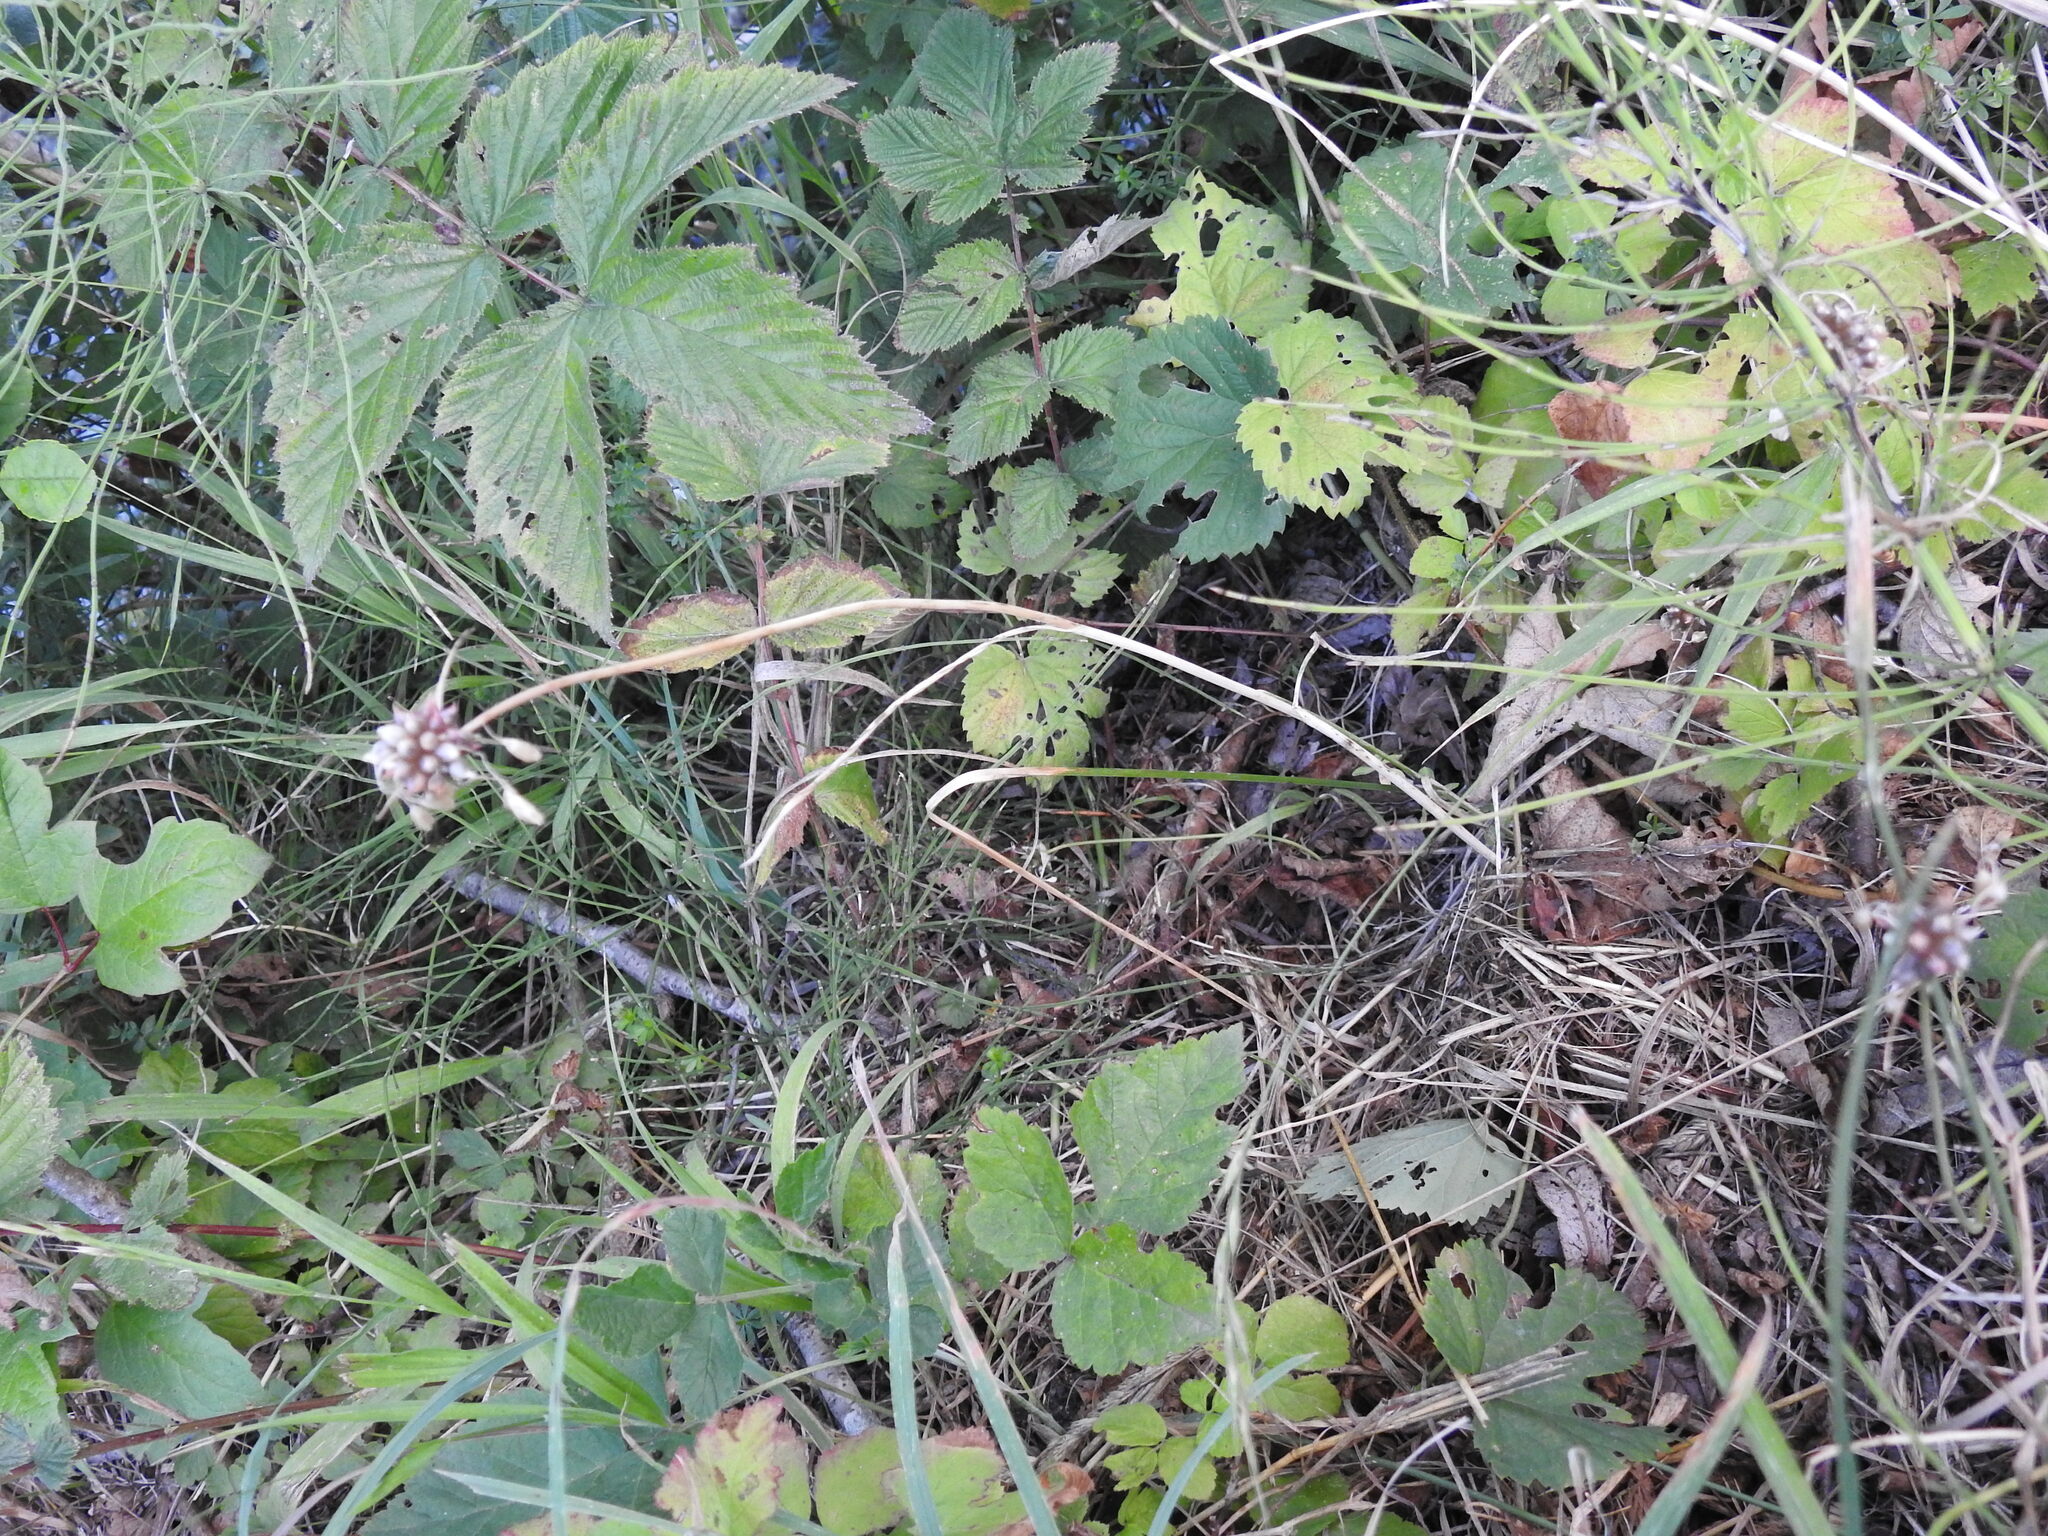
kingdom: Plantae
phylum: Tracheophyta
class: Liliopsida
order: Asparagales
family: Amaryllidaceae
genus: Allium
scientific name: Allium oleraceum
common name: Field garlic
